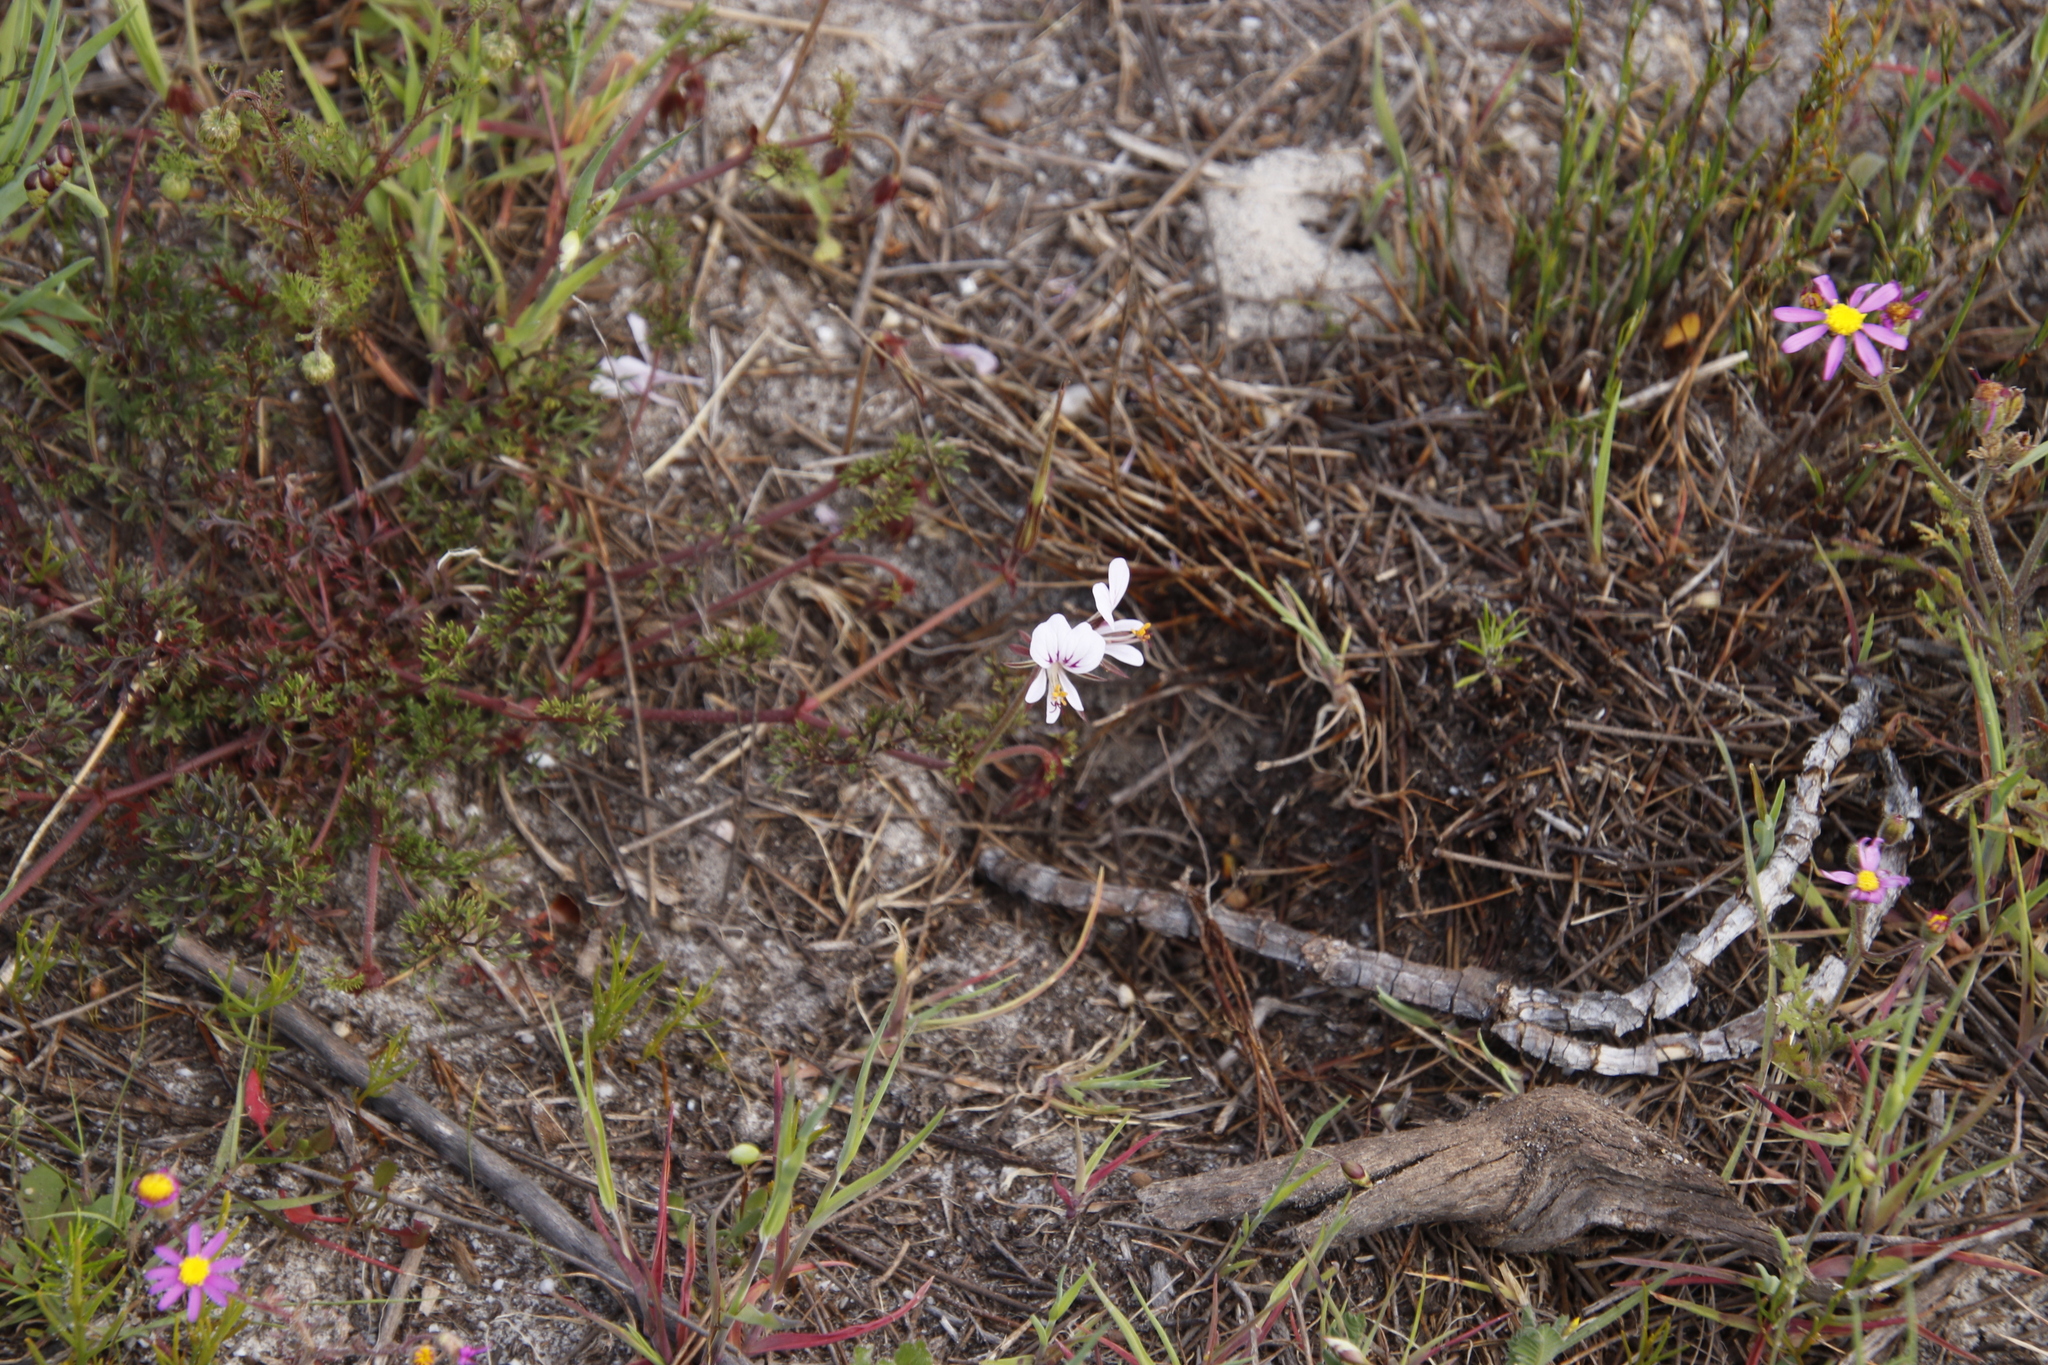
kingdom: Plantae
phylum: Tracheophyta
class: Magnoliopsida
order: Geraniales
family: Geraniaceae
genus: Pelargonium
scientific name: Pelargonium myrrhifolium
